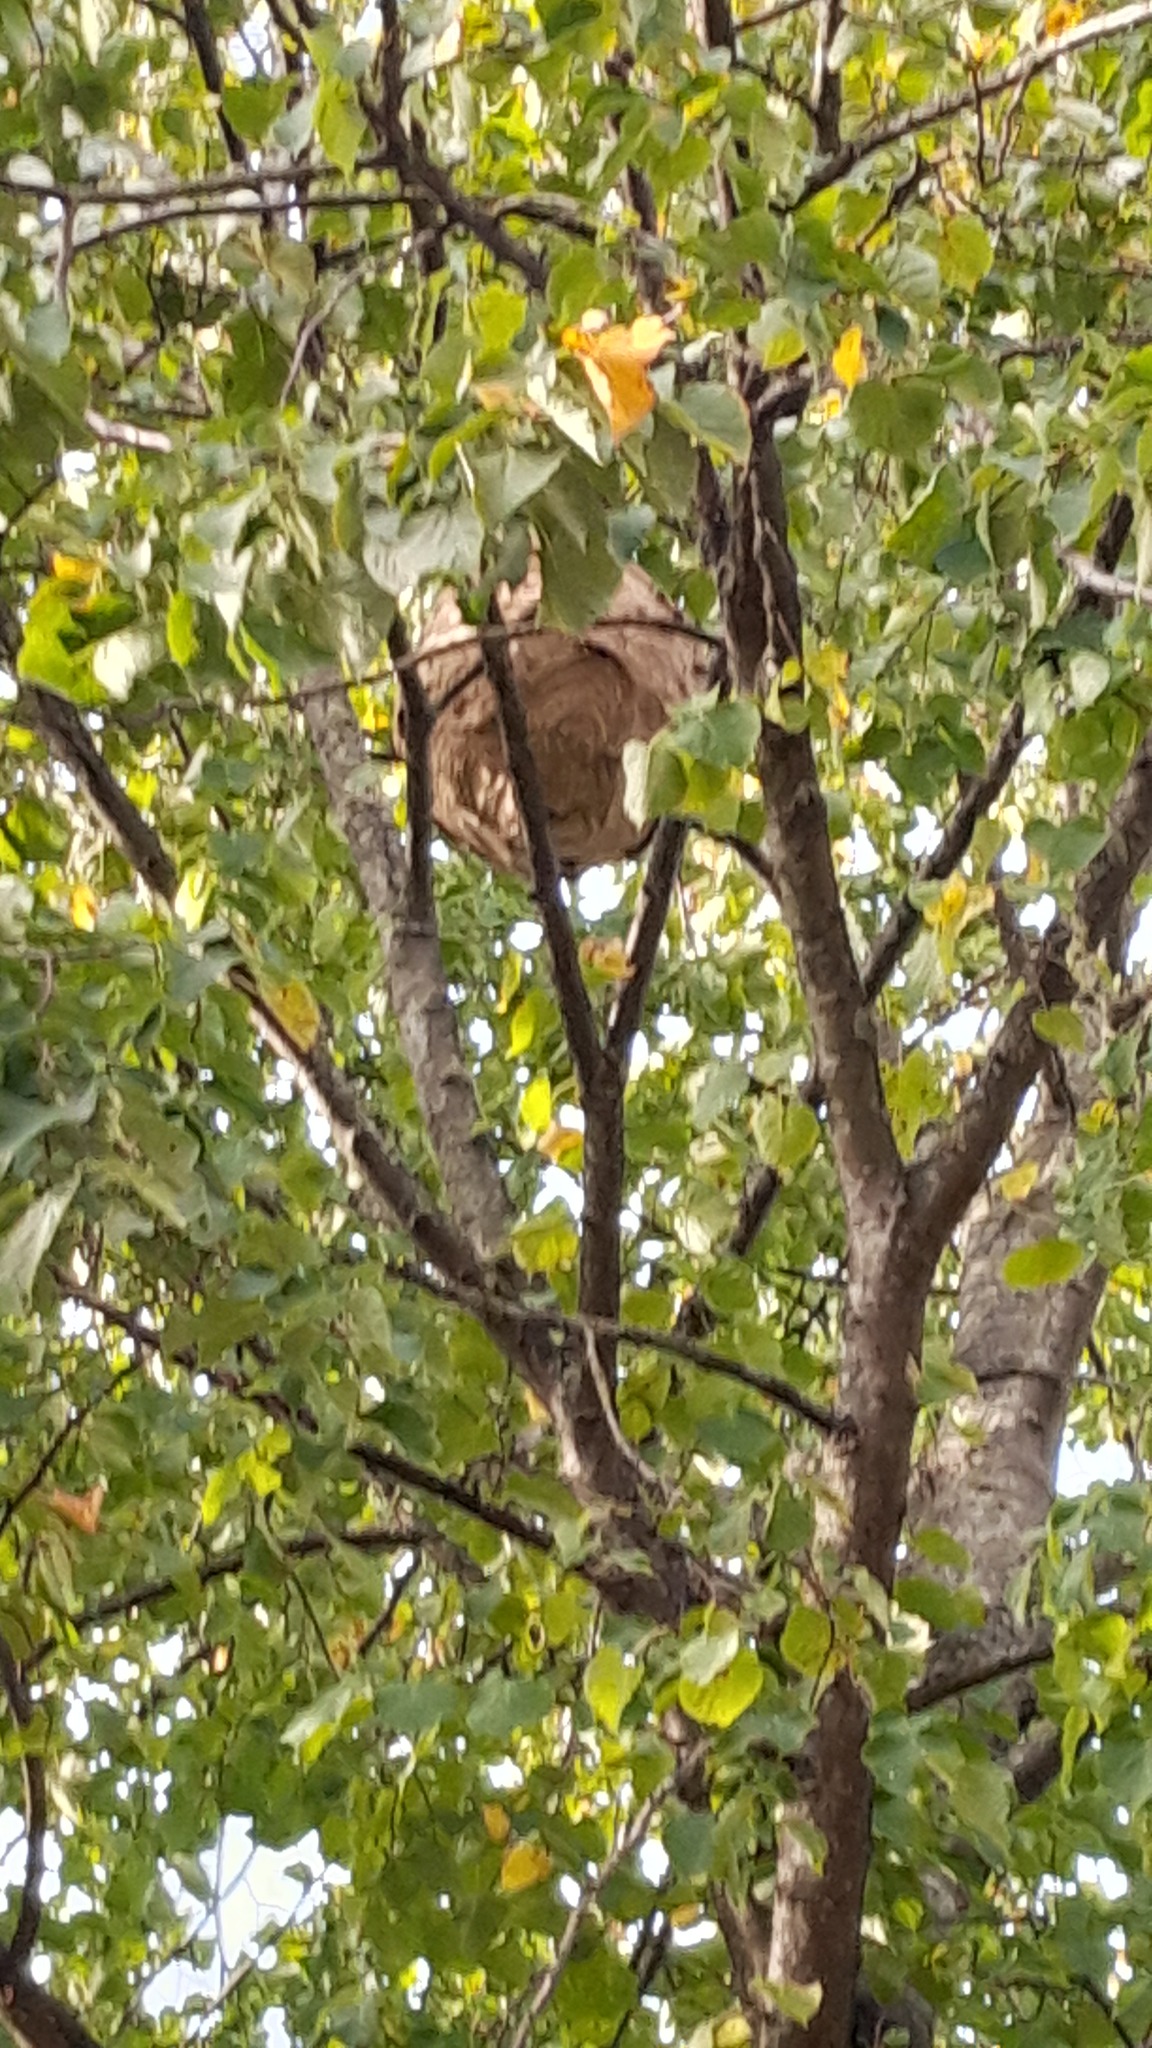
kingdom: Animalia
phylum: Arthropoda
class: Insecta
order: Hymenoptera
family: Vespidae
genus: Vespa
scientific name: Vespa velutina
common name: Asian hornet
